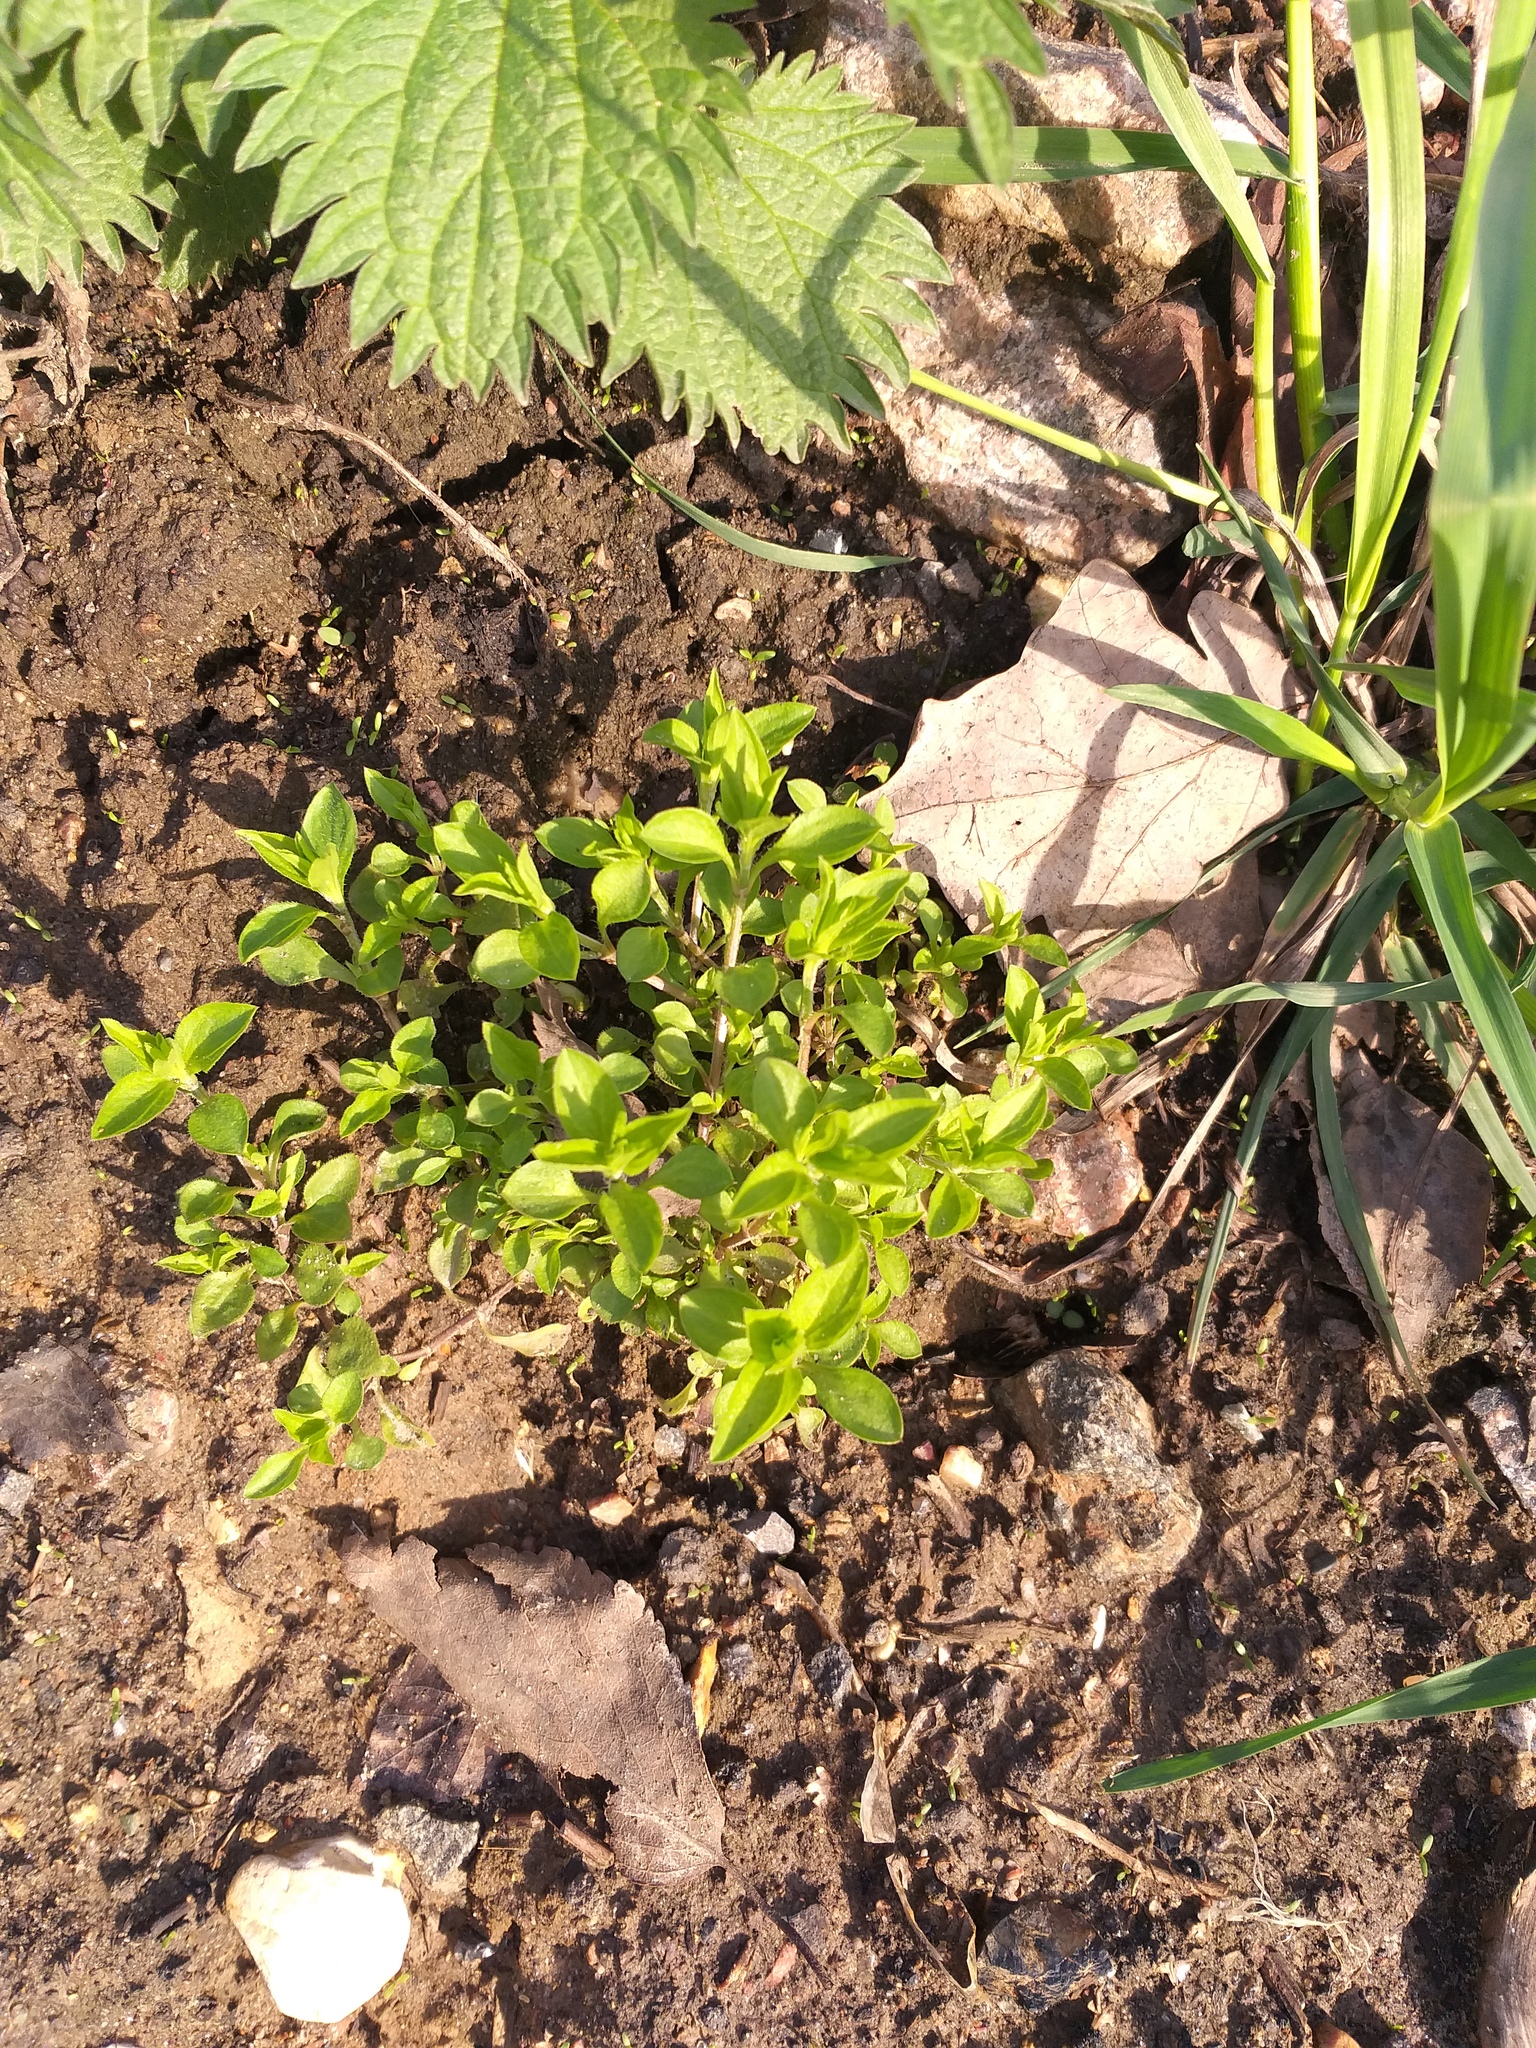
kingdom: Plantae
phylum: Tracheophyta
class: Magnoliopsida
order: Caryophyllales
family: Caryophyllaceae
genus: Moehringia
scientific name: Moehringia trinervia
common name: Three-nerved sandwort
